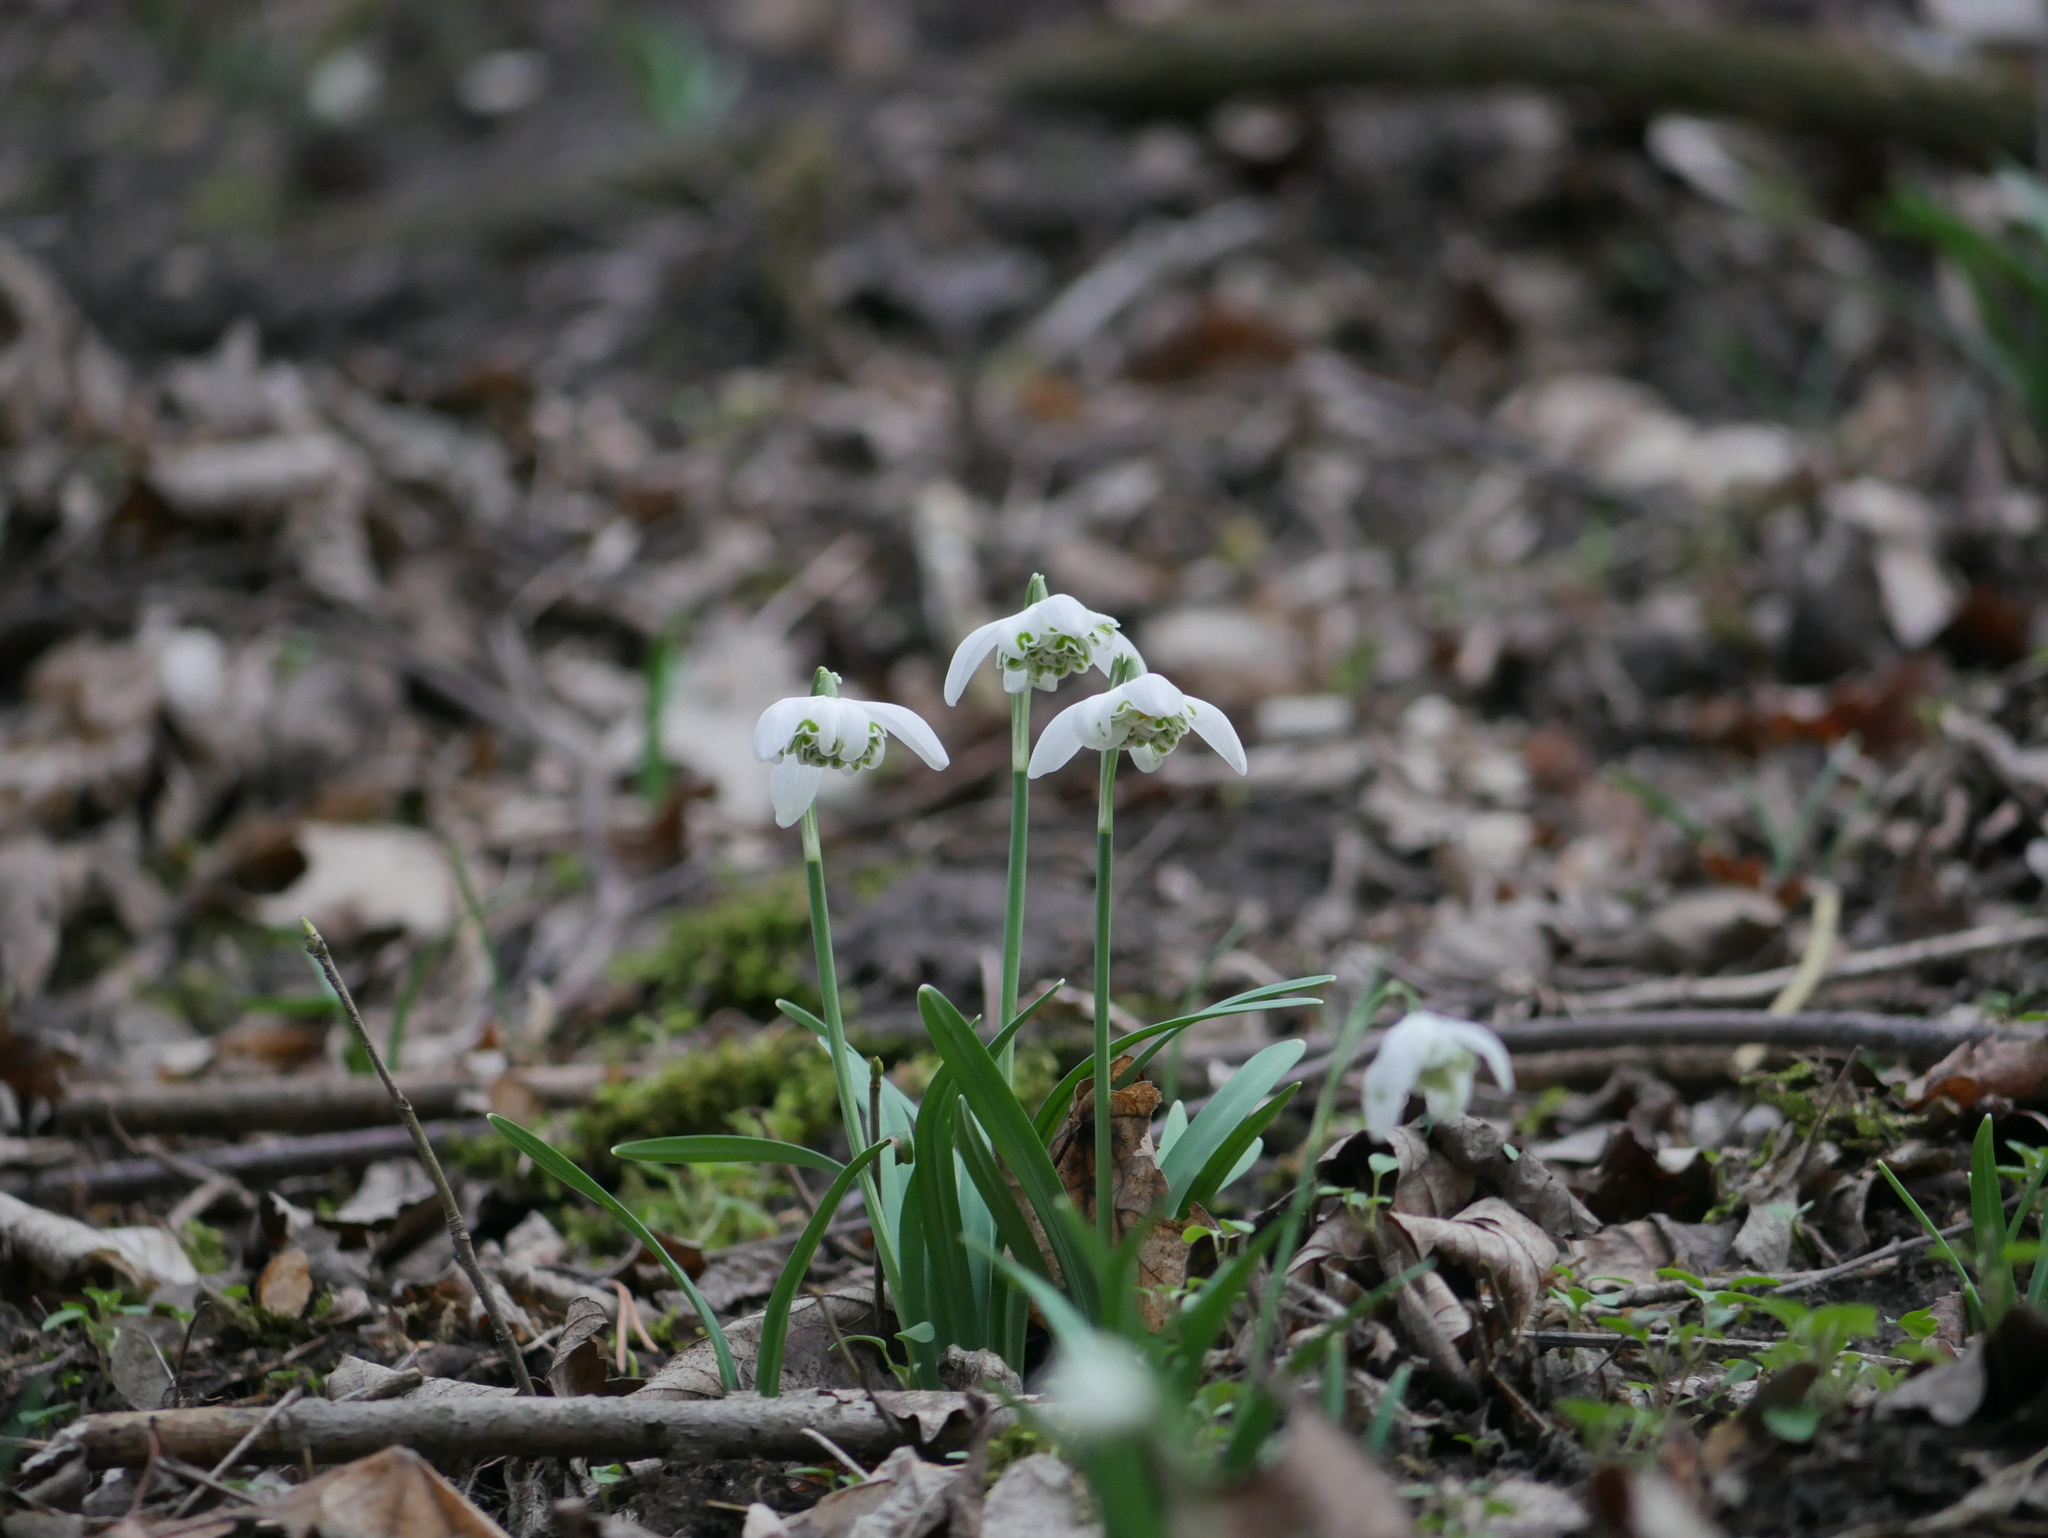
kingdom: Plantae
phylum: Tracheophyta
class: Liliopsida
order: Asparagales
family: Amaryllidaceae
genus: Galanthus
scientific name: Galanthus nivalis
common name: Snowdrop
